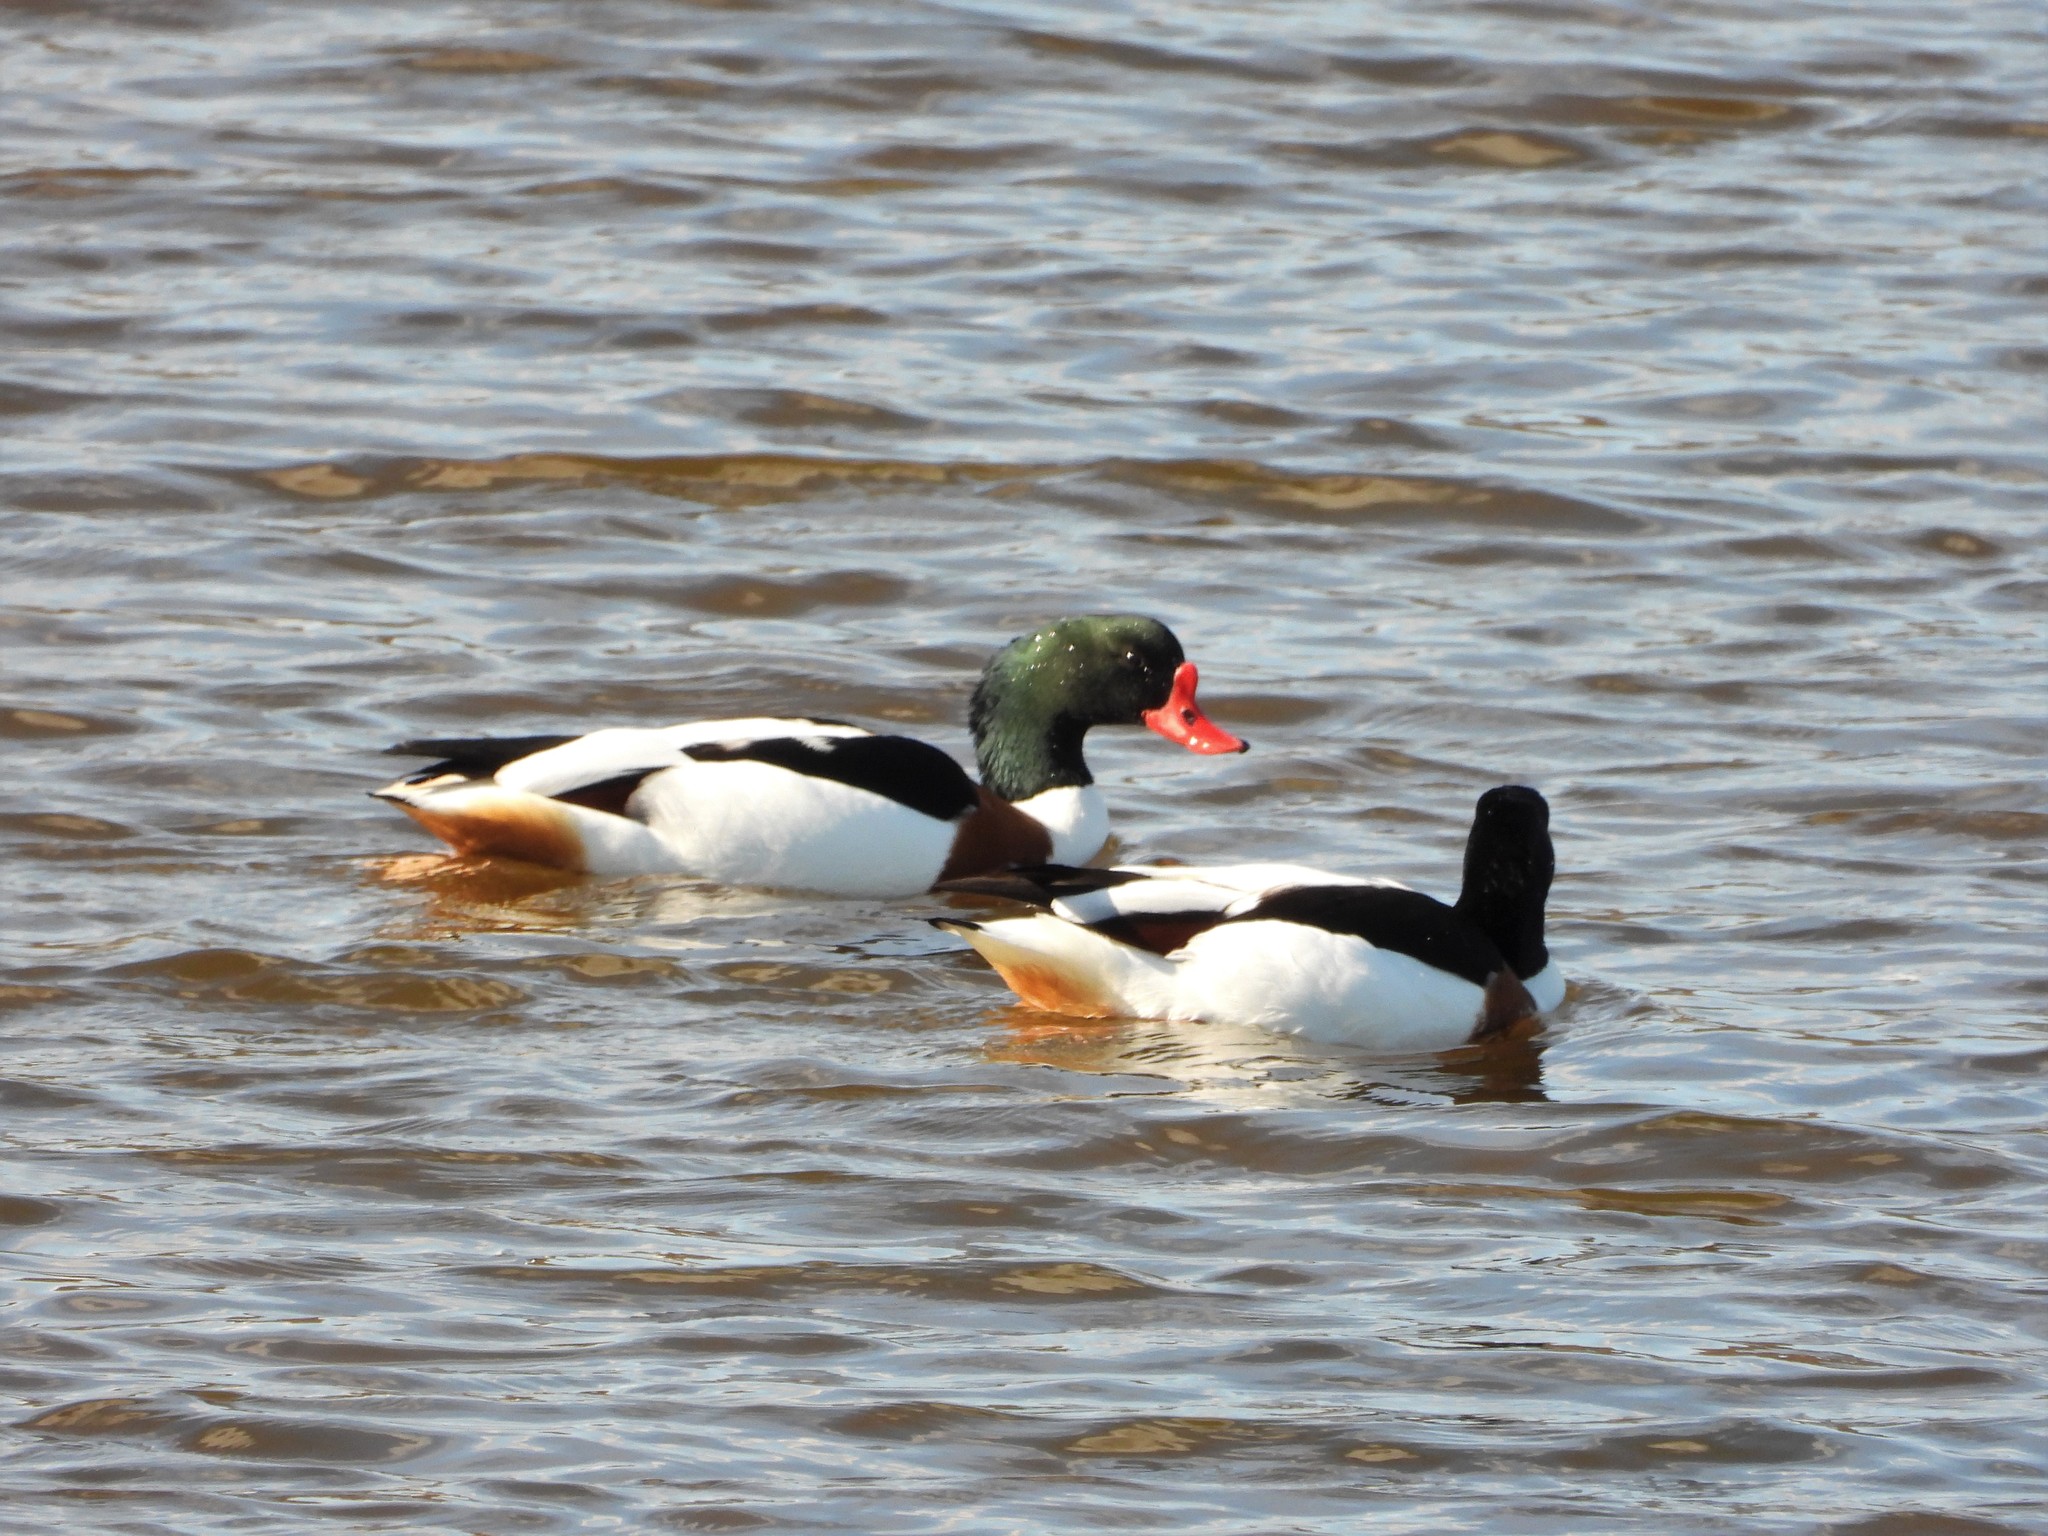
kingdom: Animalia
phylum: Chordata
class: Aves
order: Anseriformes
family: Anatidae
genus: Tadorna
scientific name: Tadorna tadorna
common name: Common shelduck
